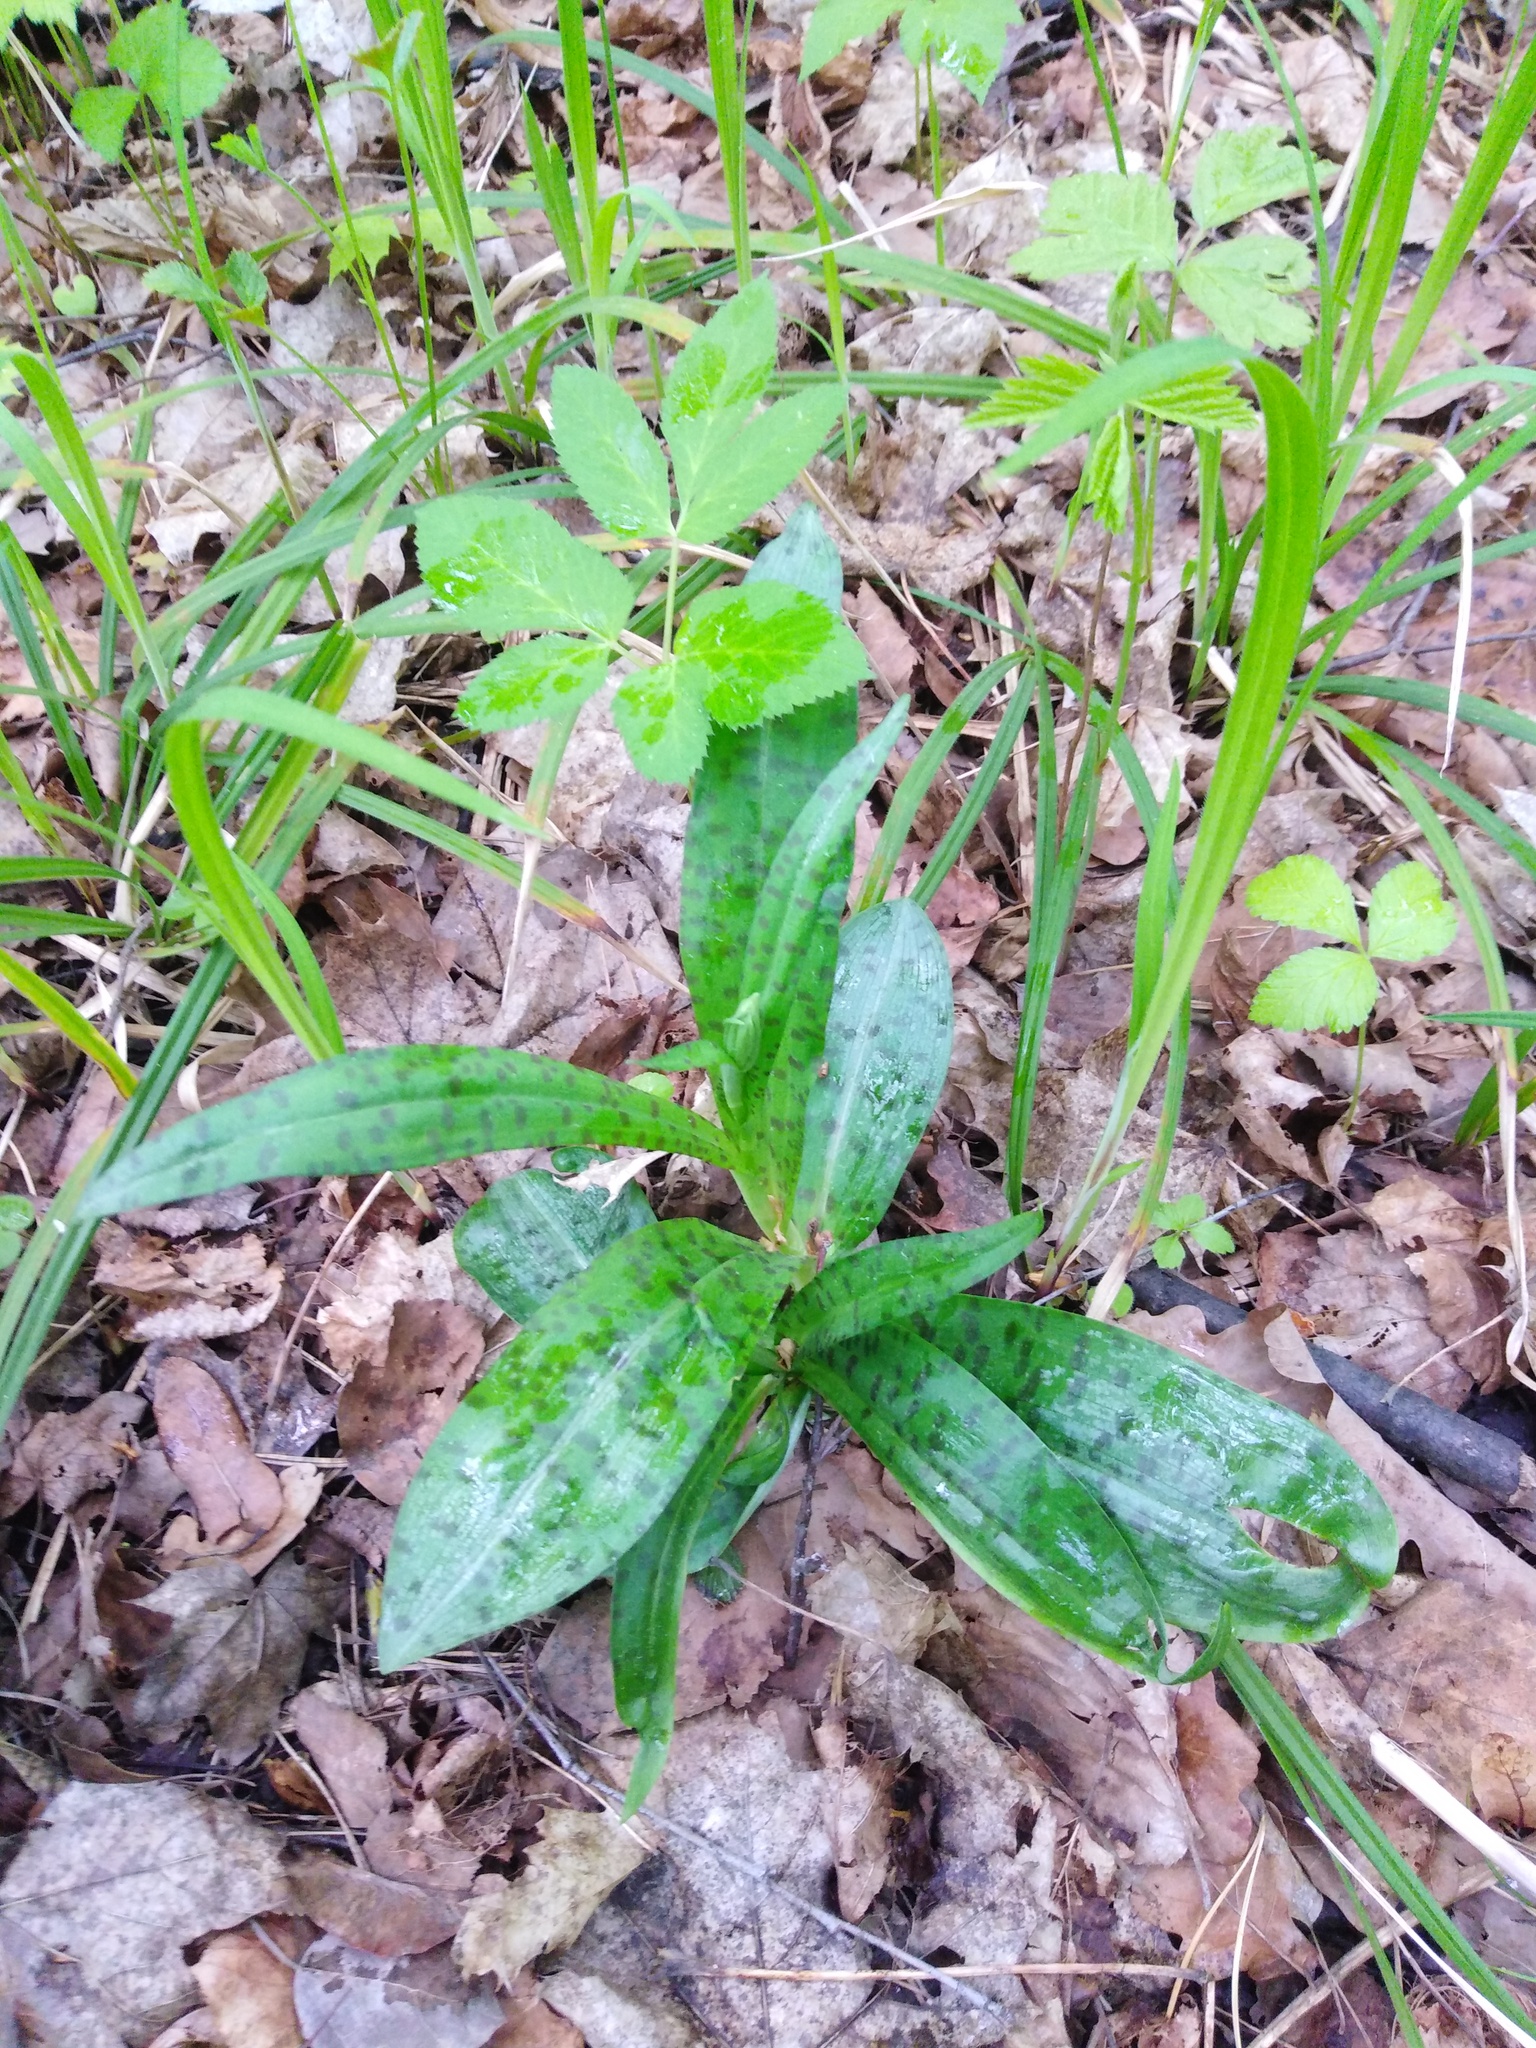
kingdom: Plantae
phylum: Tracheophyta
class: Liliopsida
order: Asparagales
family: Orchidaceae
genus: Dactylorhiza
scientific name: Dactylorhiza maculata
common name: Heath spotted-orchid
